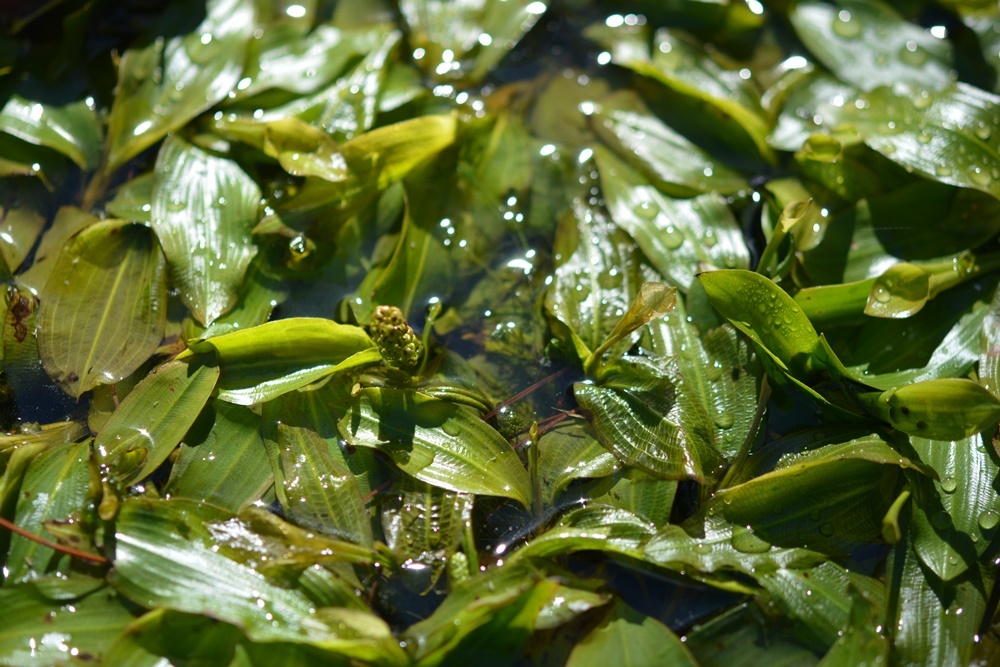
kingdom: Plantae
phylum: Tracheophyta
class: Liliopsida
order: Alismatales
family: Potamogetonaceae
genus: Potamogeton
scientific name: Potamogeton nodosus
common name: Loddon pondweed
